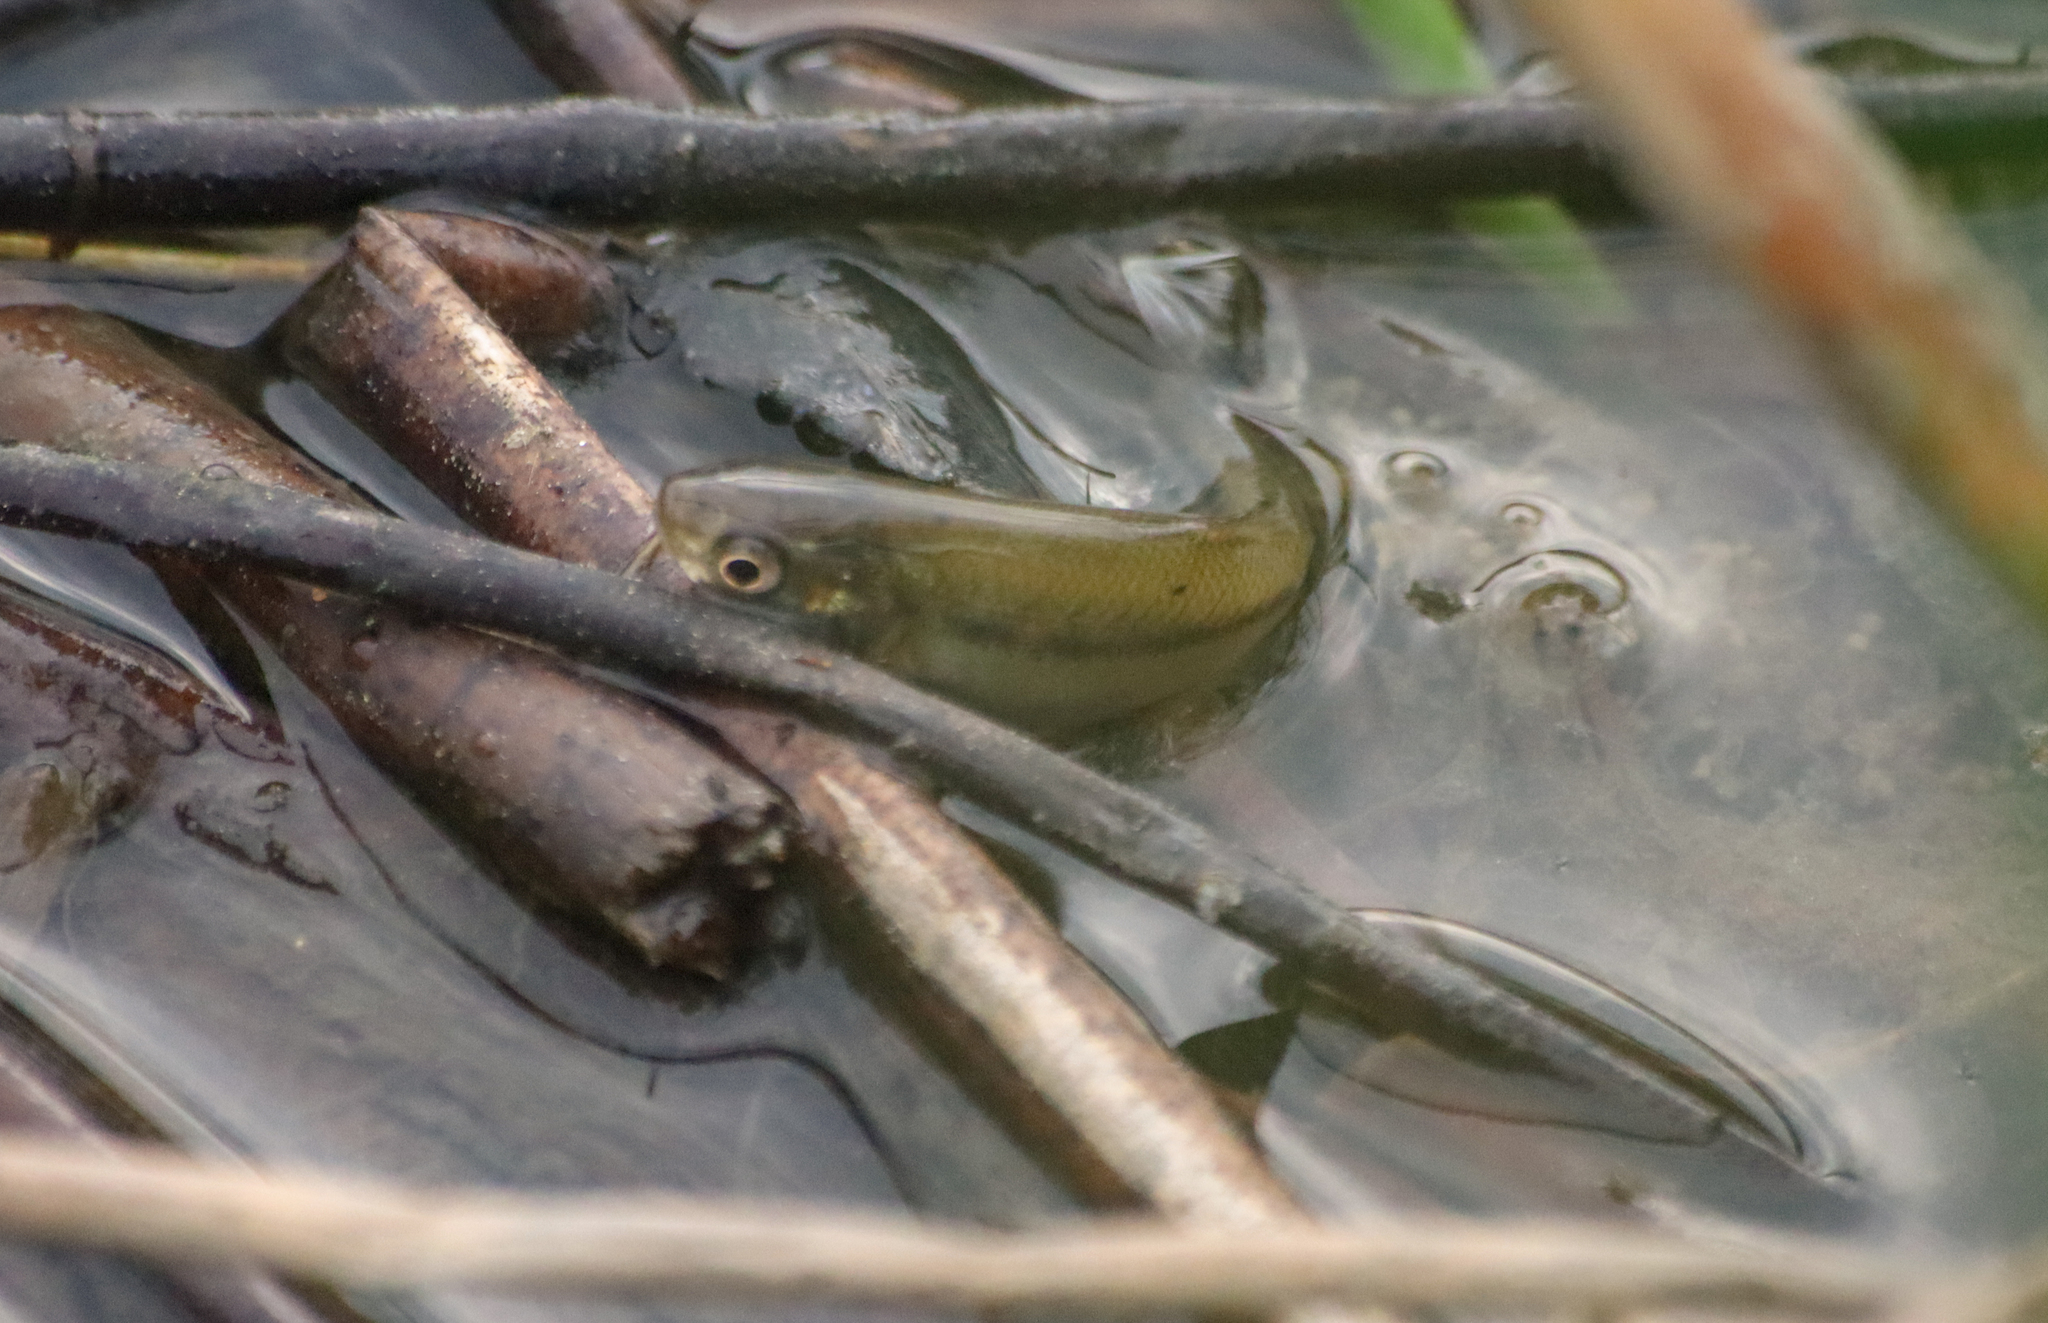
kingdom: Animalia
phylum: Chordata
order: Cypriniformes
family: Cyprinidae
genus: Pimephales
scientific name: Pimephales promelas
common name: Fathead minnow
